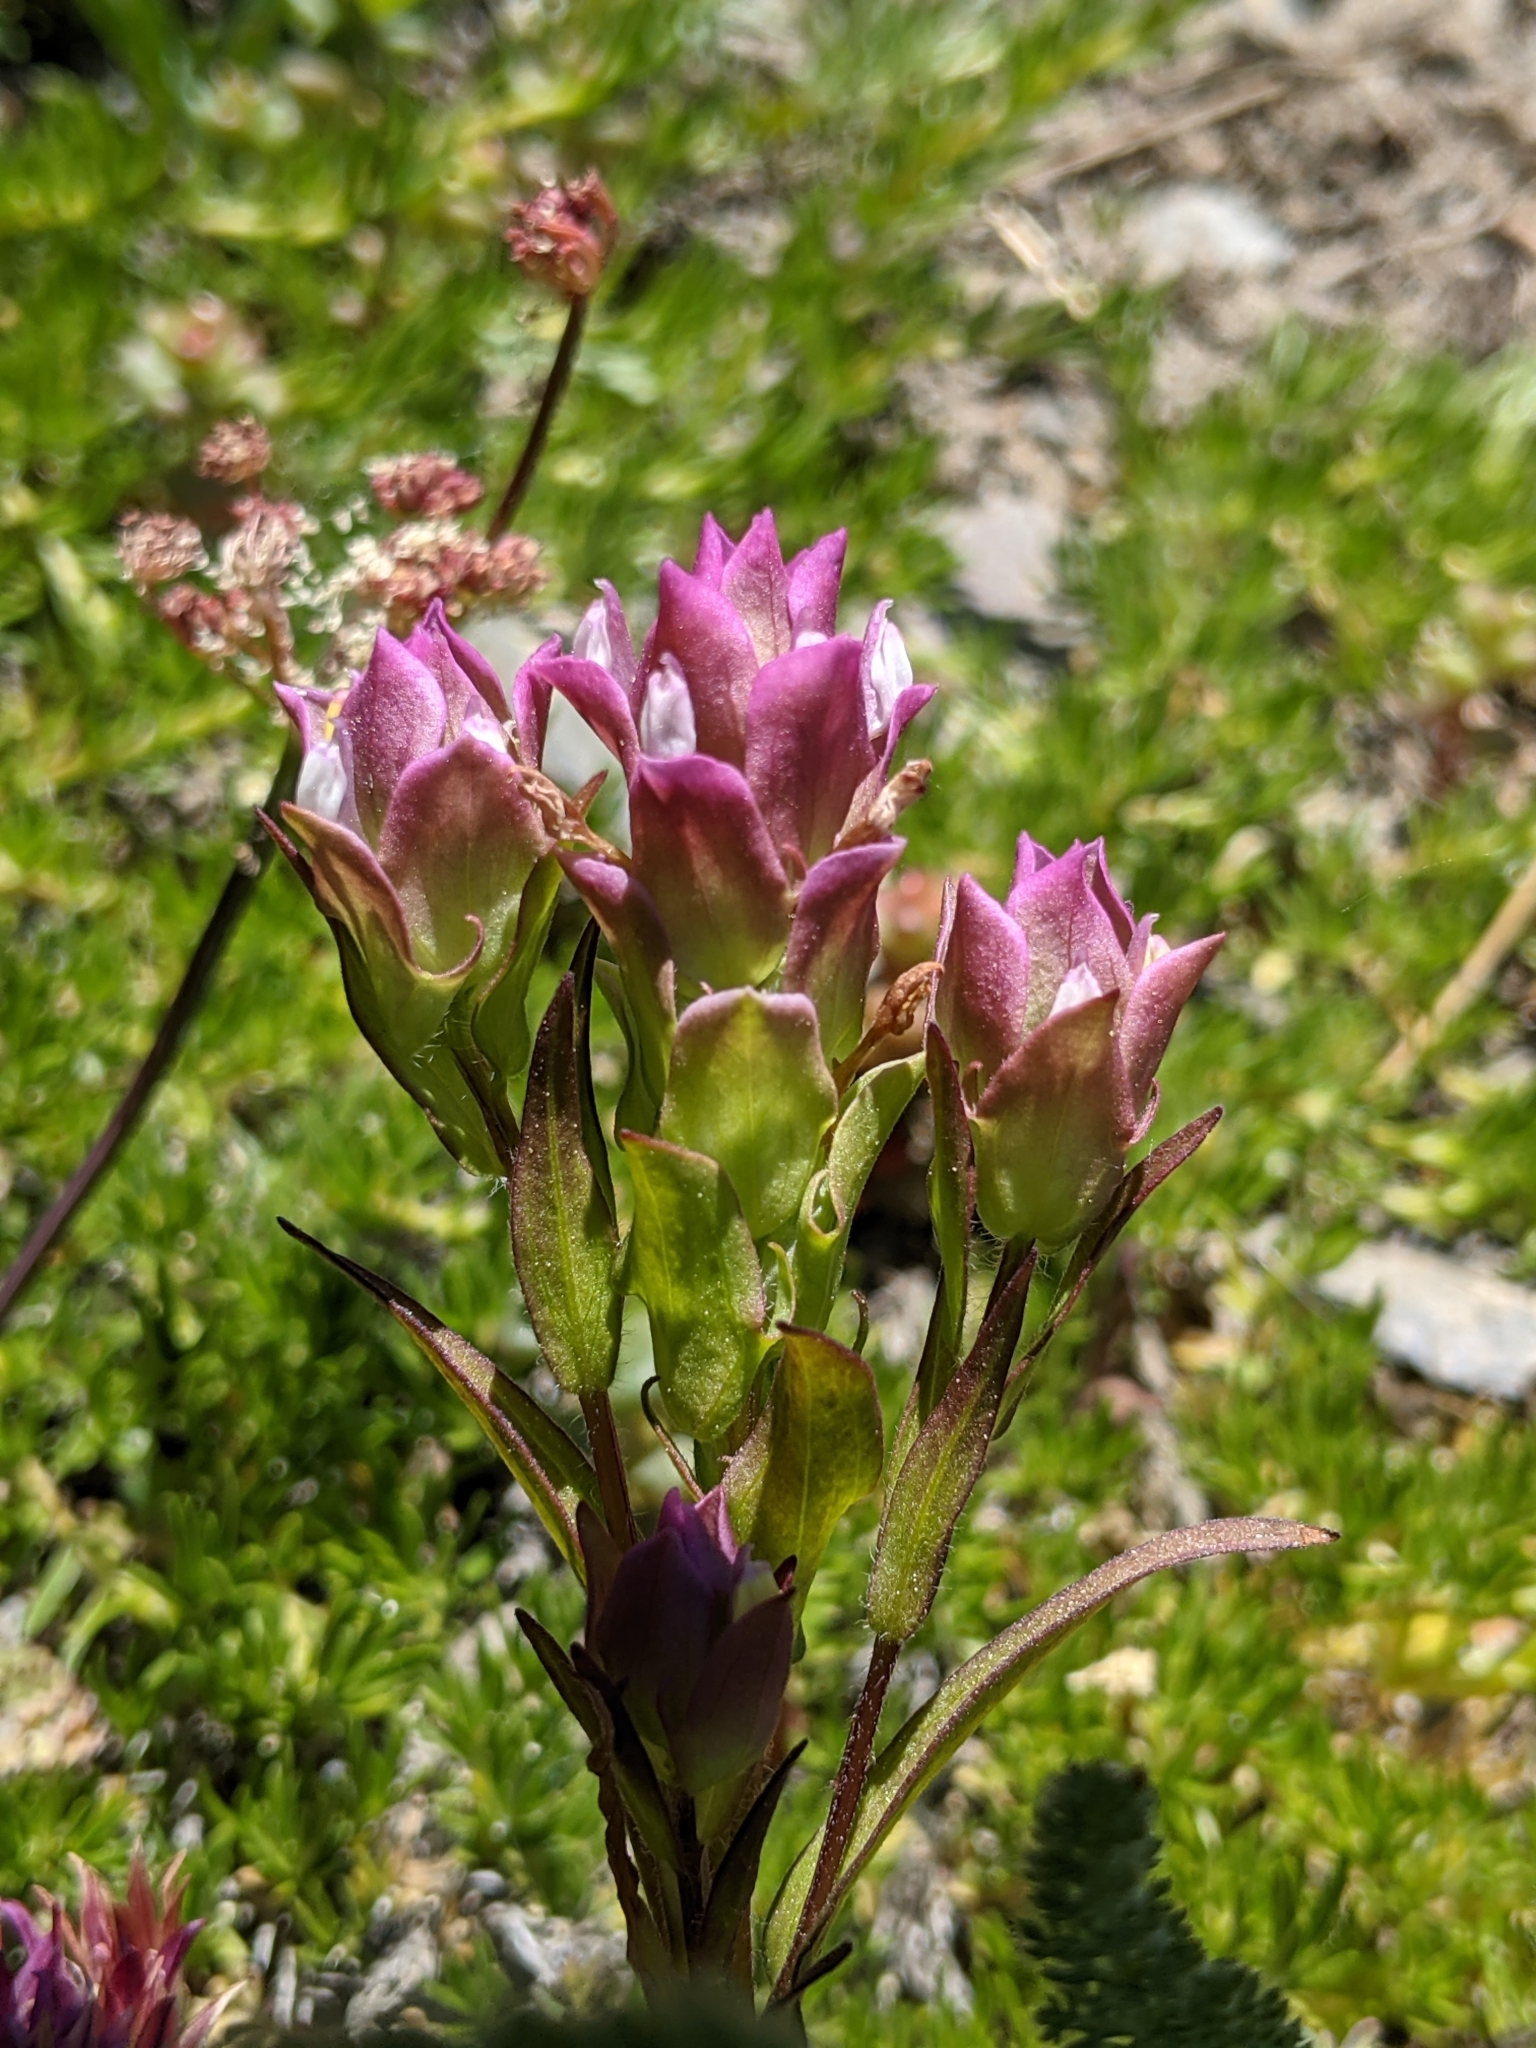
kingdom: Plantae
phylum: Tracheophyta
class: Magnoliopsida
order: Lamiales
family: Orobanchaceae
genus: Orthocarpus
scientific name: Orthocarpus imbricatus
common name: Mountain owl's-clover
